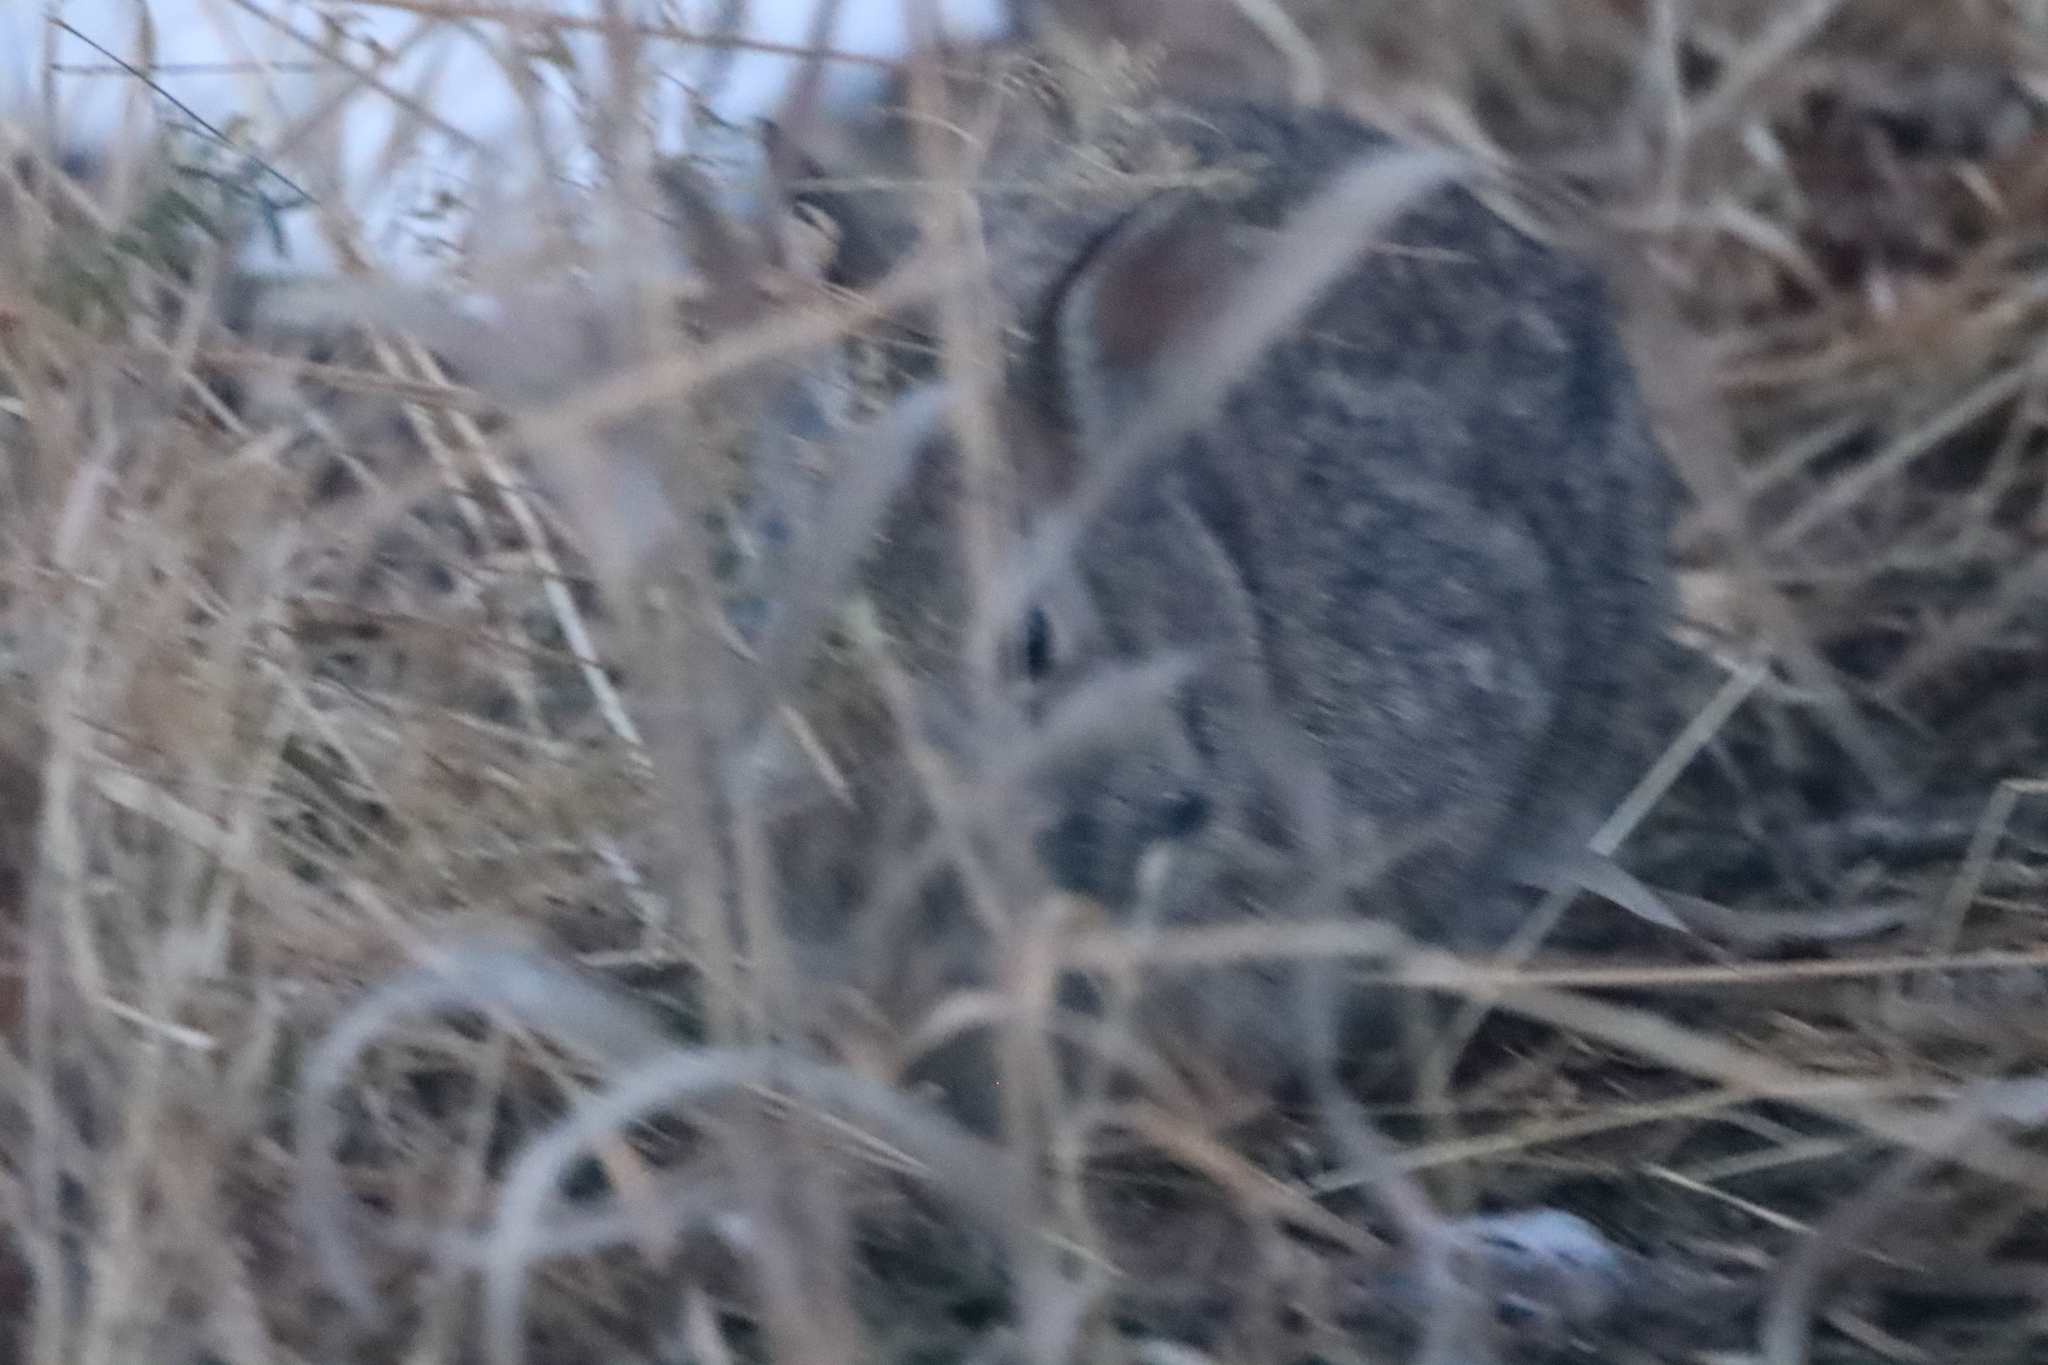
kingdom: Animalia
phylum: Chordata
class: Mammalia
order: Lagomorpha
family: Leporidae
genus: Sylvilagus
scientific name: Sylvilagus floridanus
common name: Eastern cottontail
